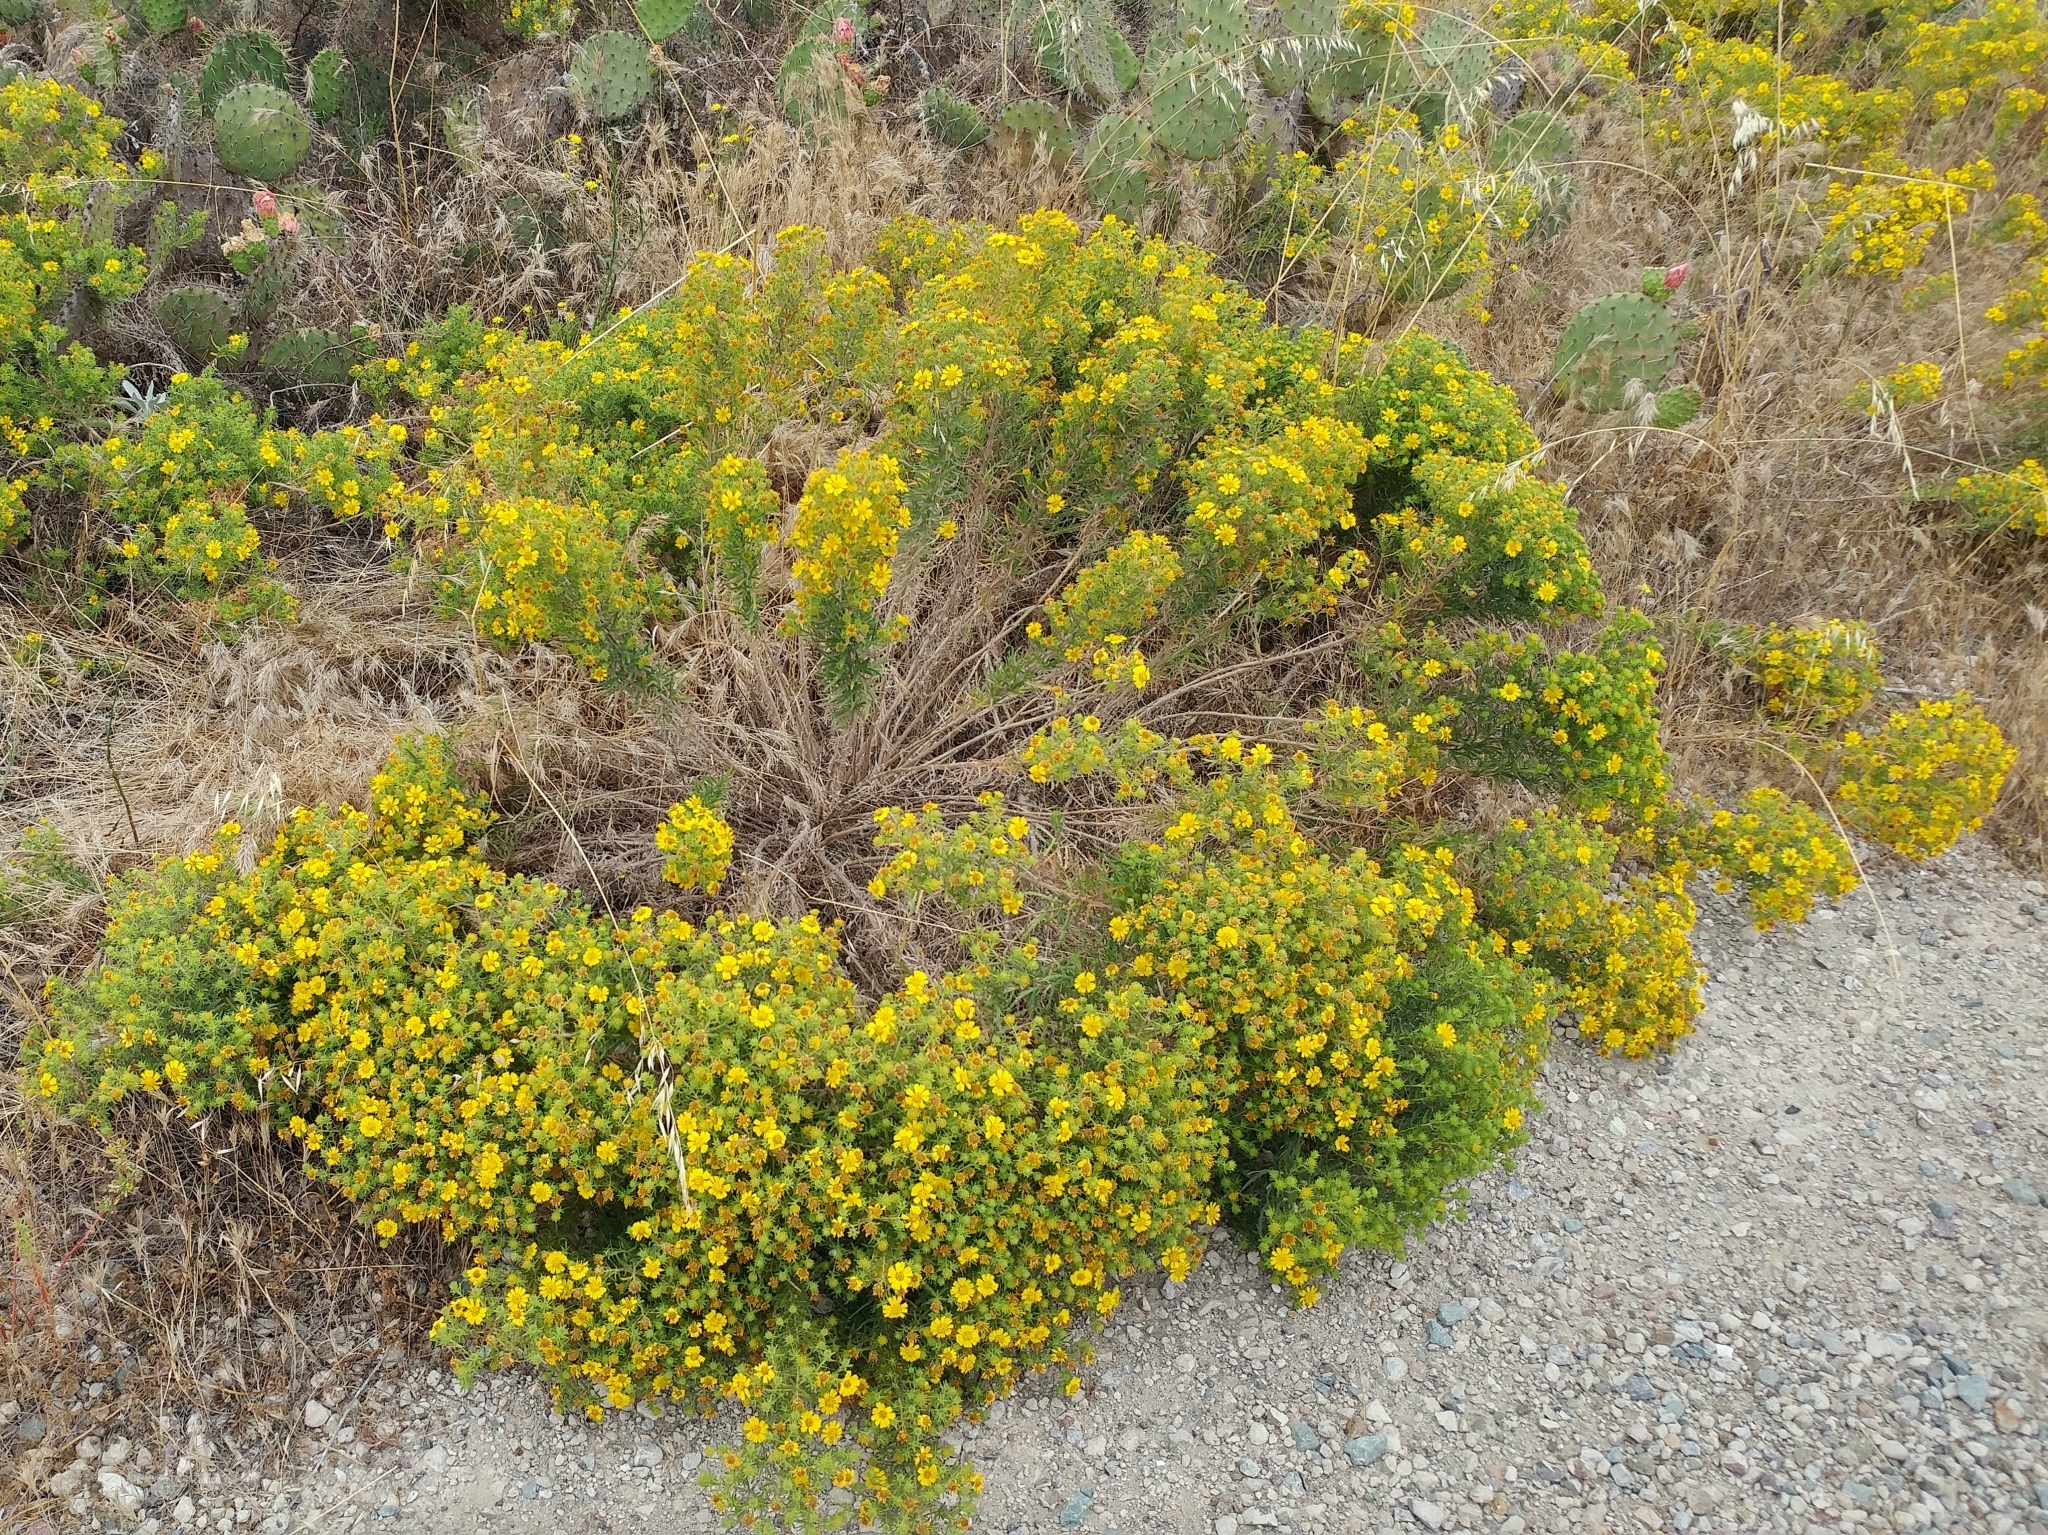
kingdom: Plantae
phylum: Tracheophyta
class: Magnoliopsida
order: Asterales
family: Asteraceae
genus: Deinandra
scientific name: Deinandra clementina
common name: Island tarplant
